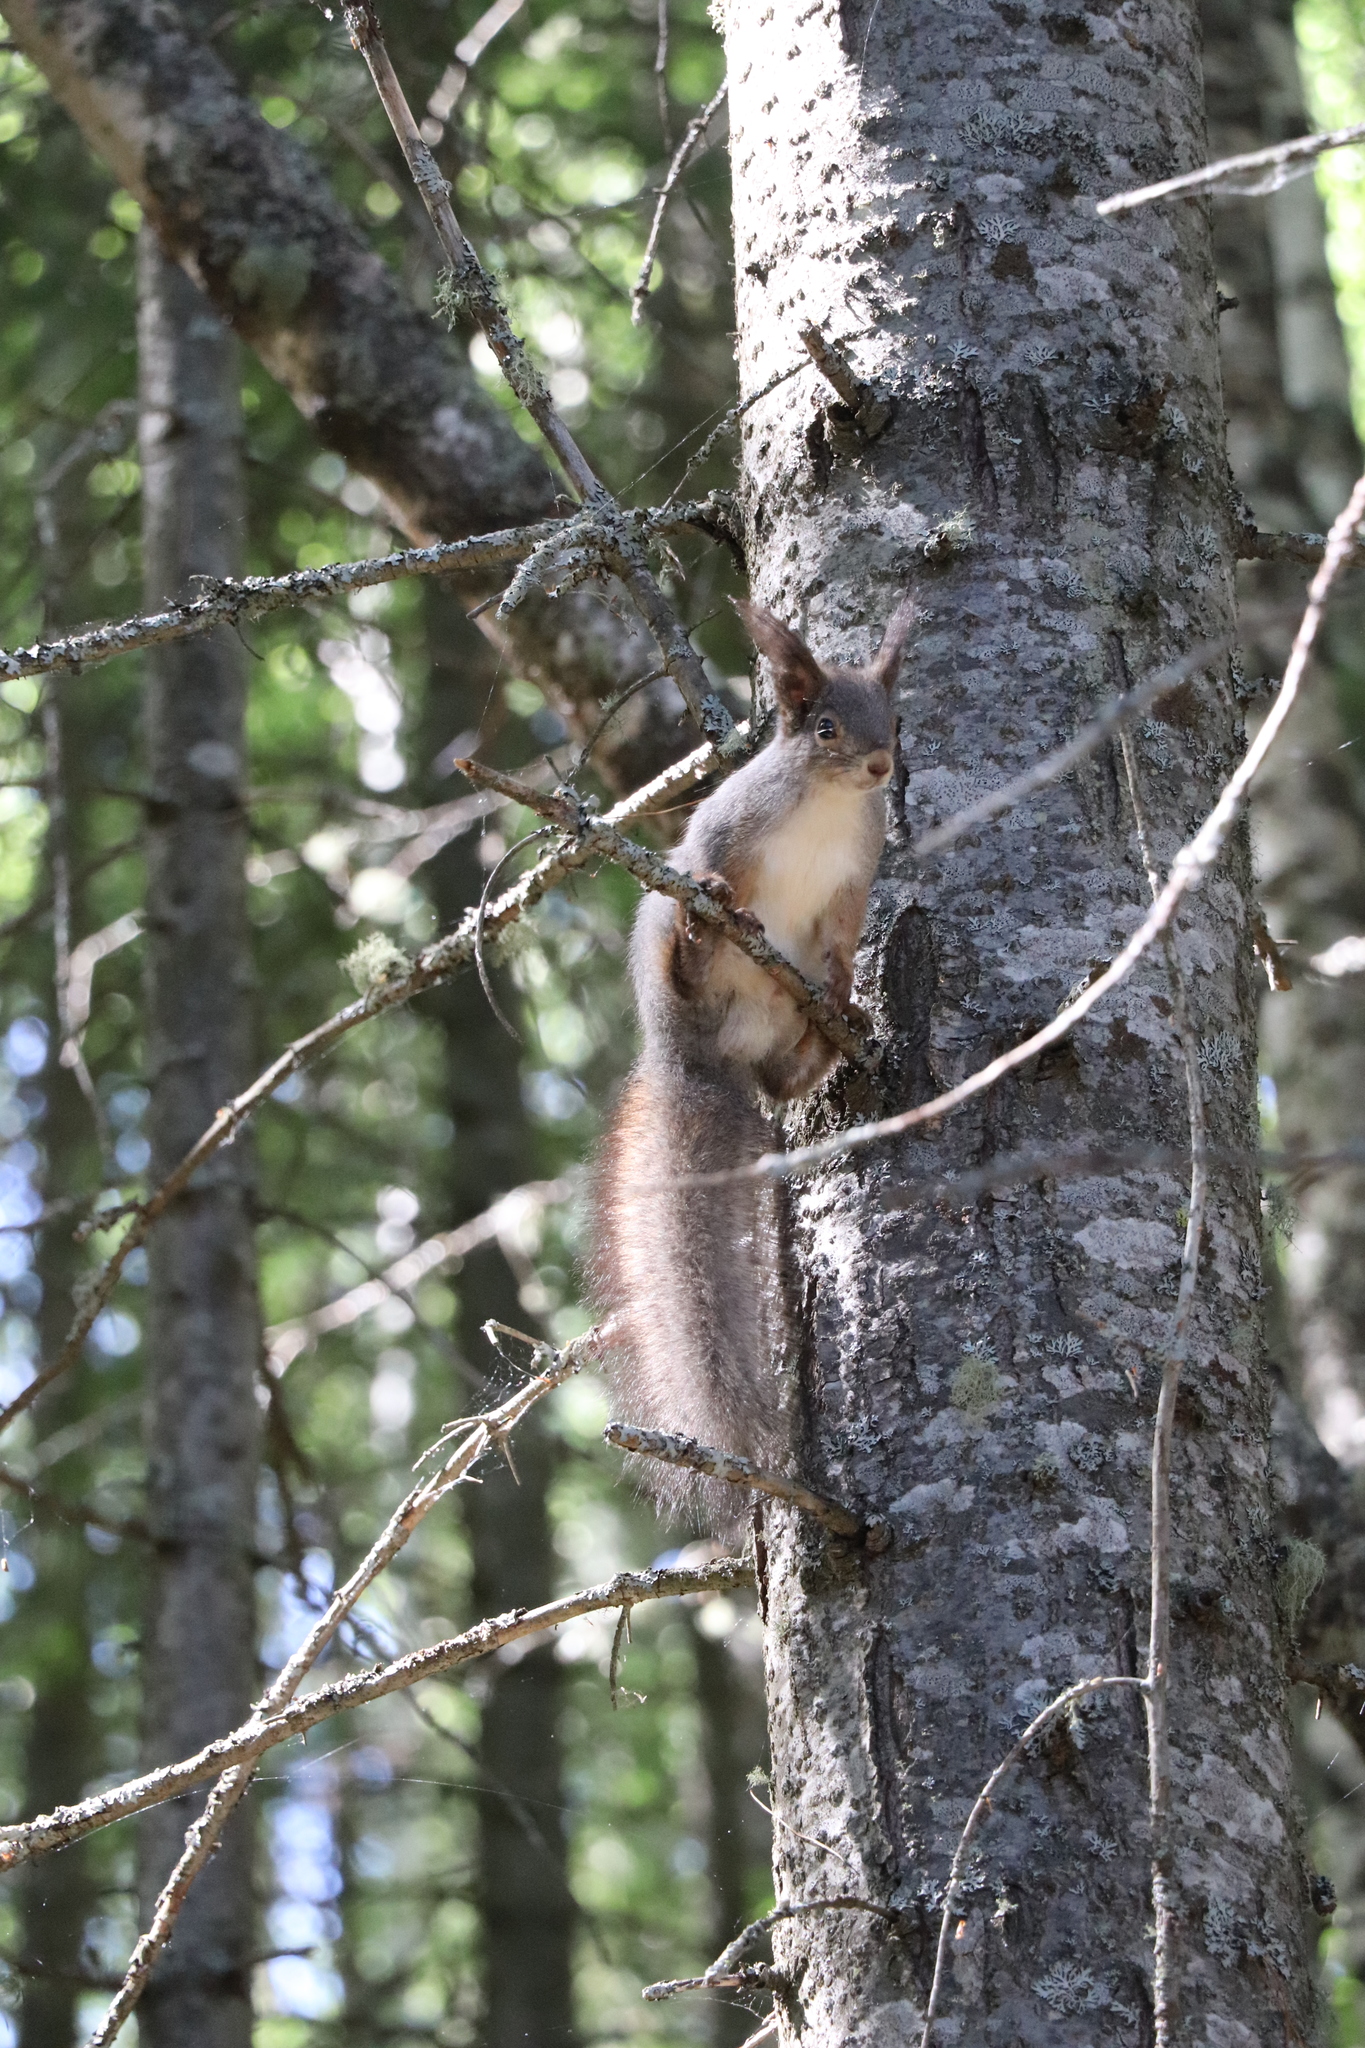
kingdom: Animalia
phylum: Chordata
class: Mammalia
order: Rodentia
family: Sciuridae
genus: Sciurus
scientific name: Sciurus vulgaris
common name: Eurasian red squirrel
